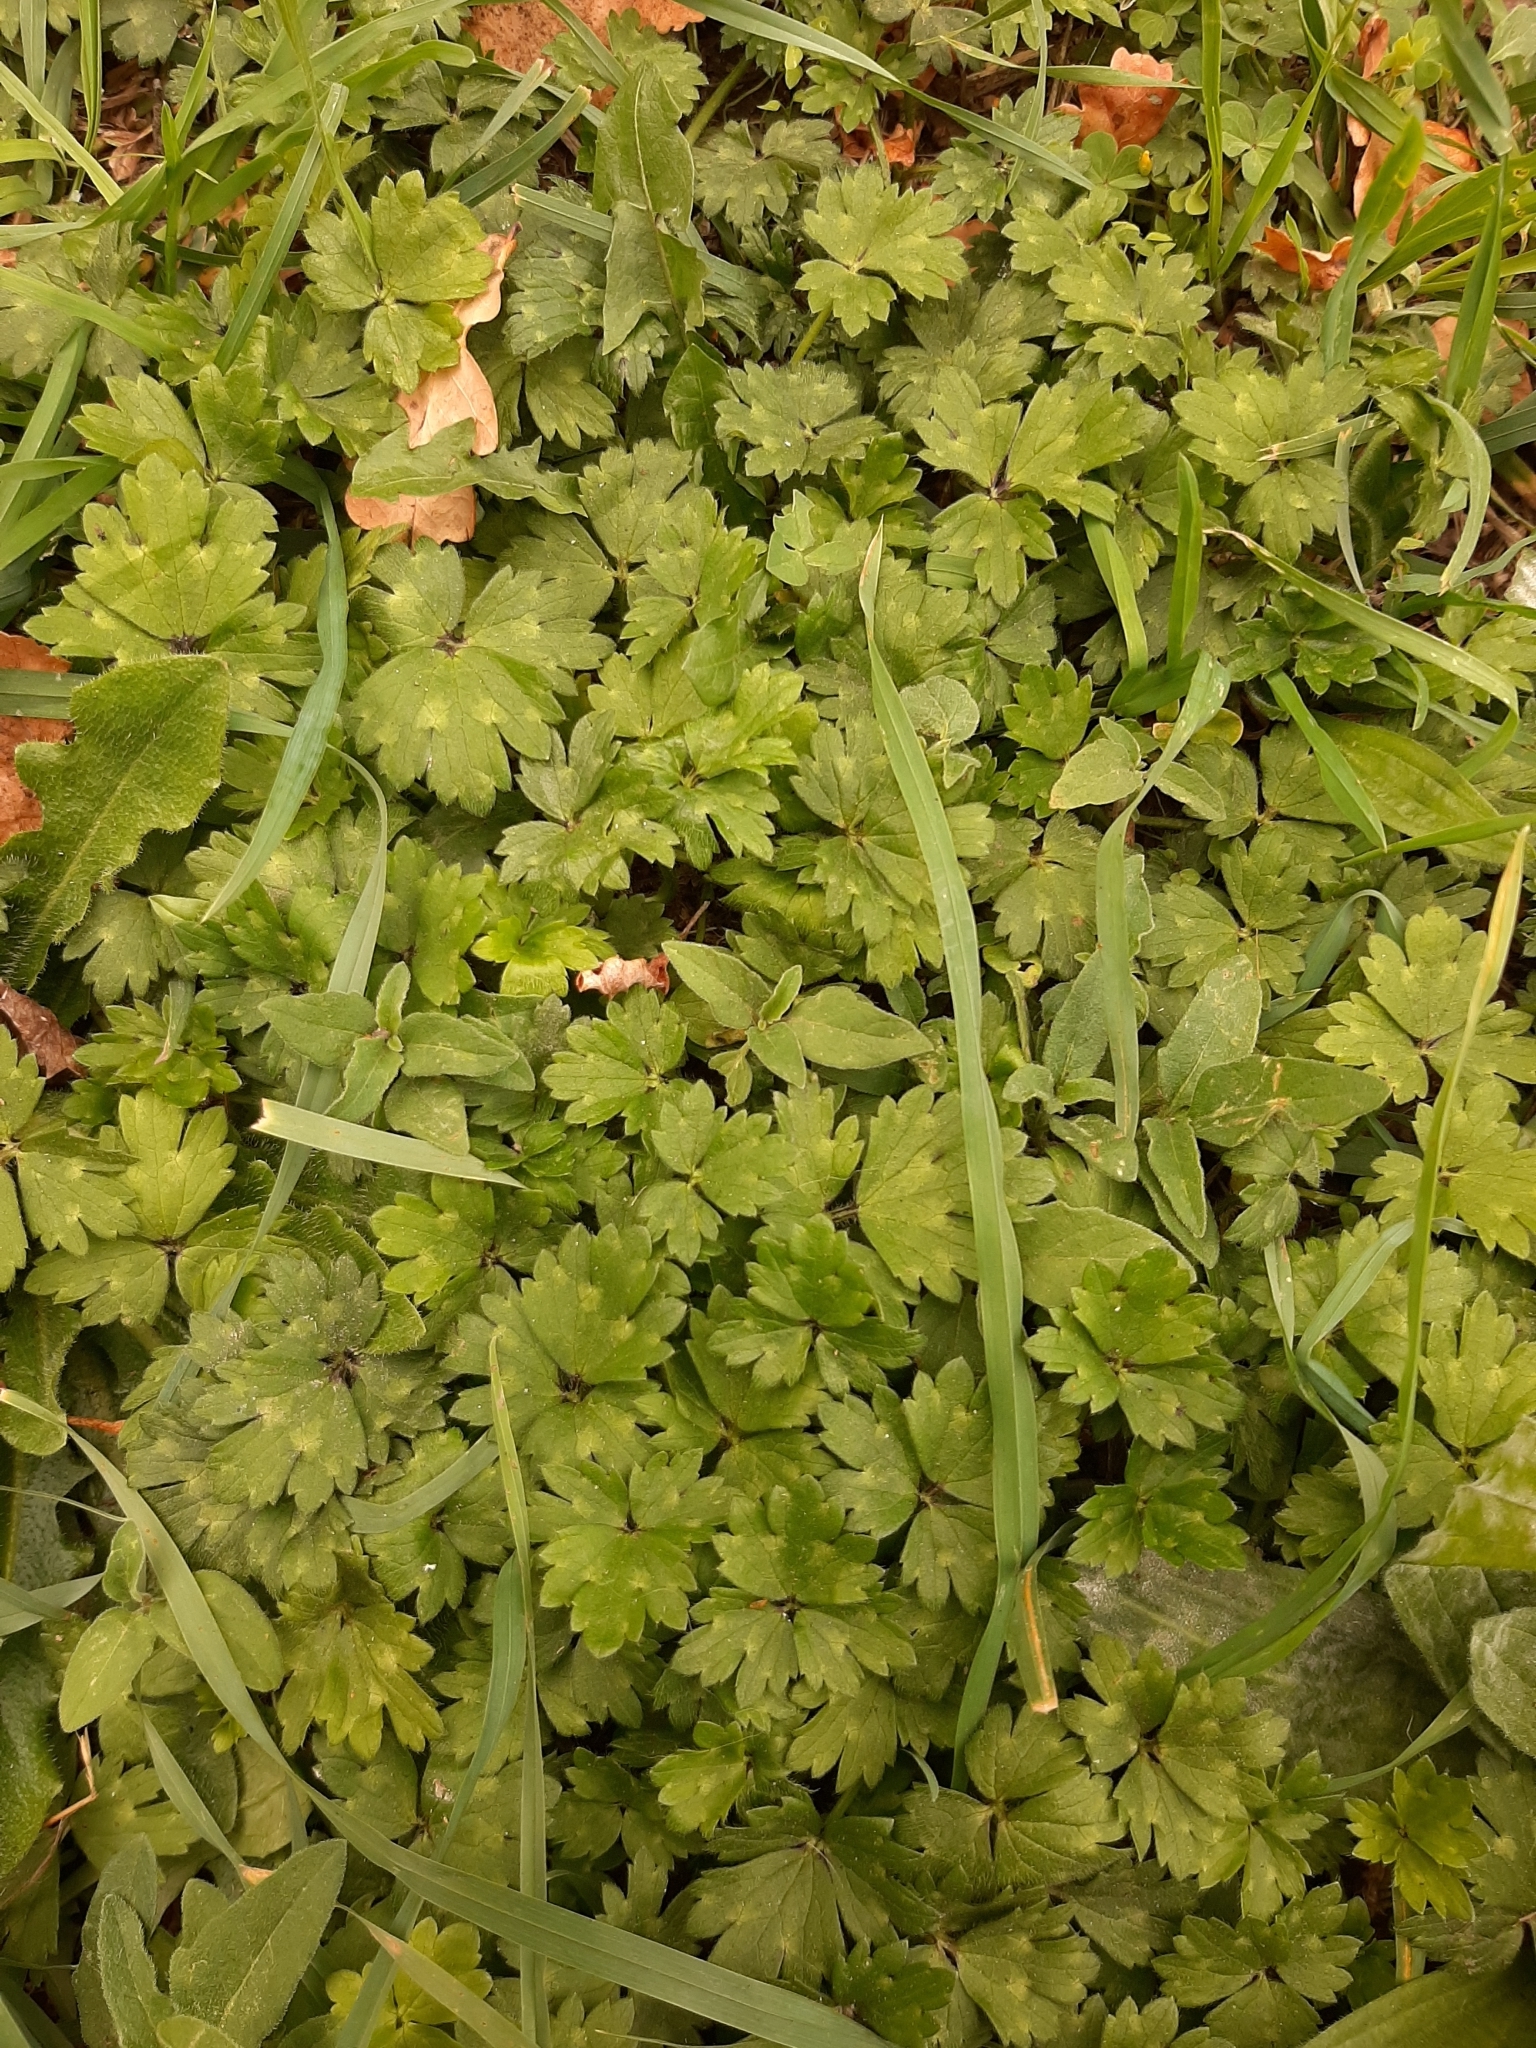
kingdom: Plantae
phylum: Tracheophyta
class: Magnoliopsida
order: Ranunculales
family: Ranunculaceae
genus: Ranunculus
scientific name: Ranunculus repens
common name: Creeping buttercup
